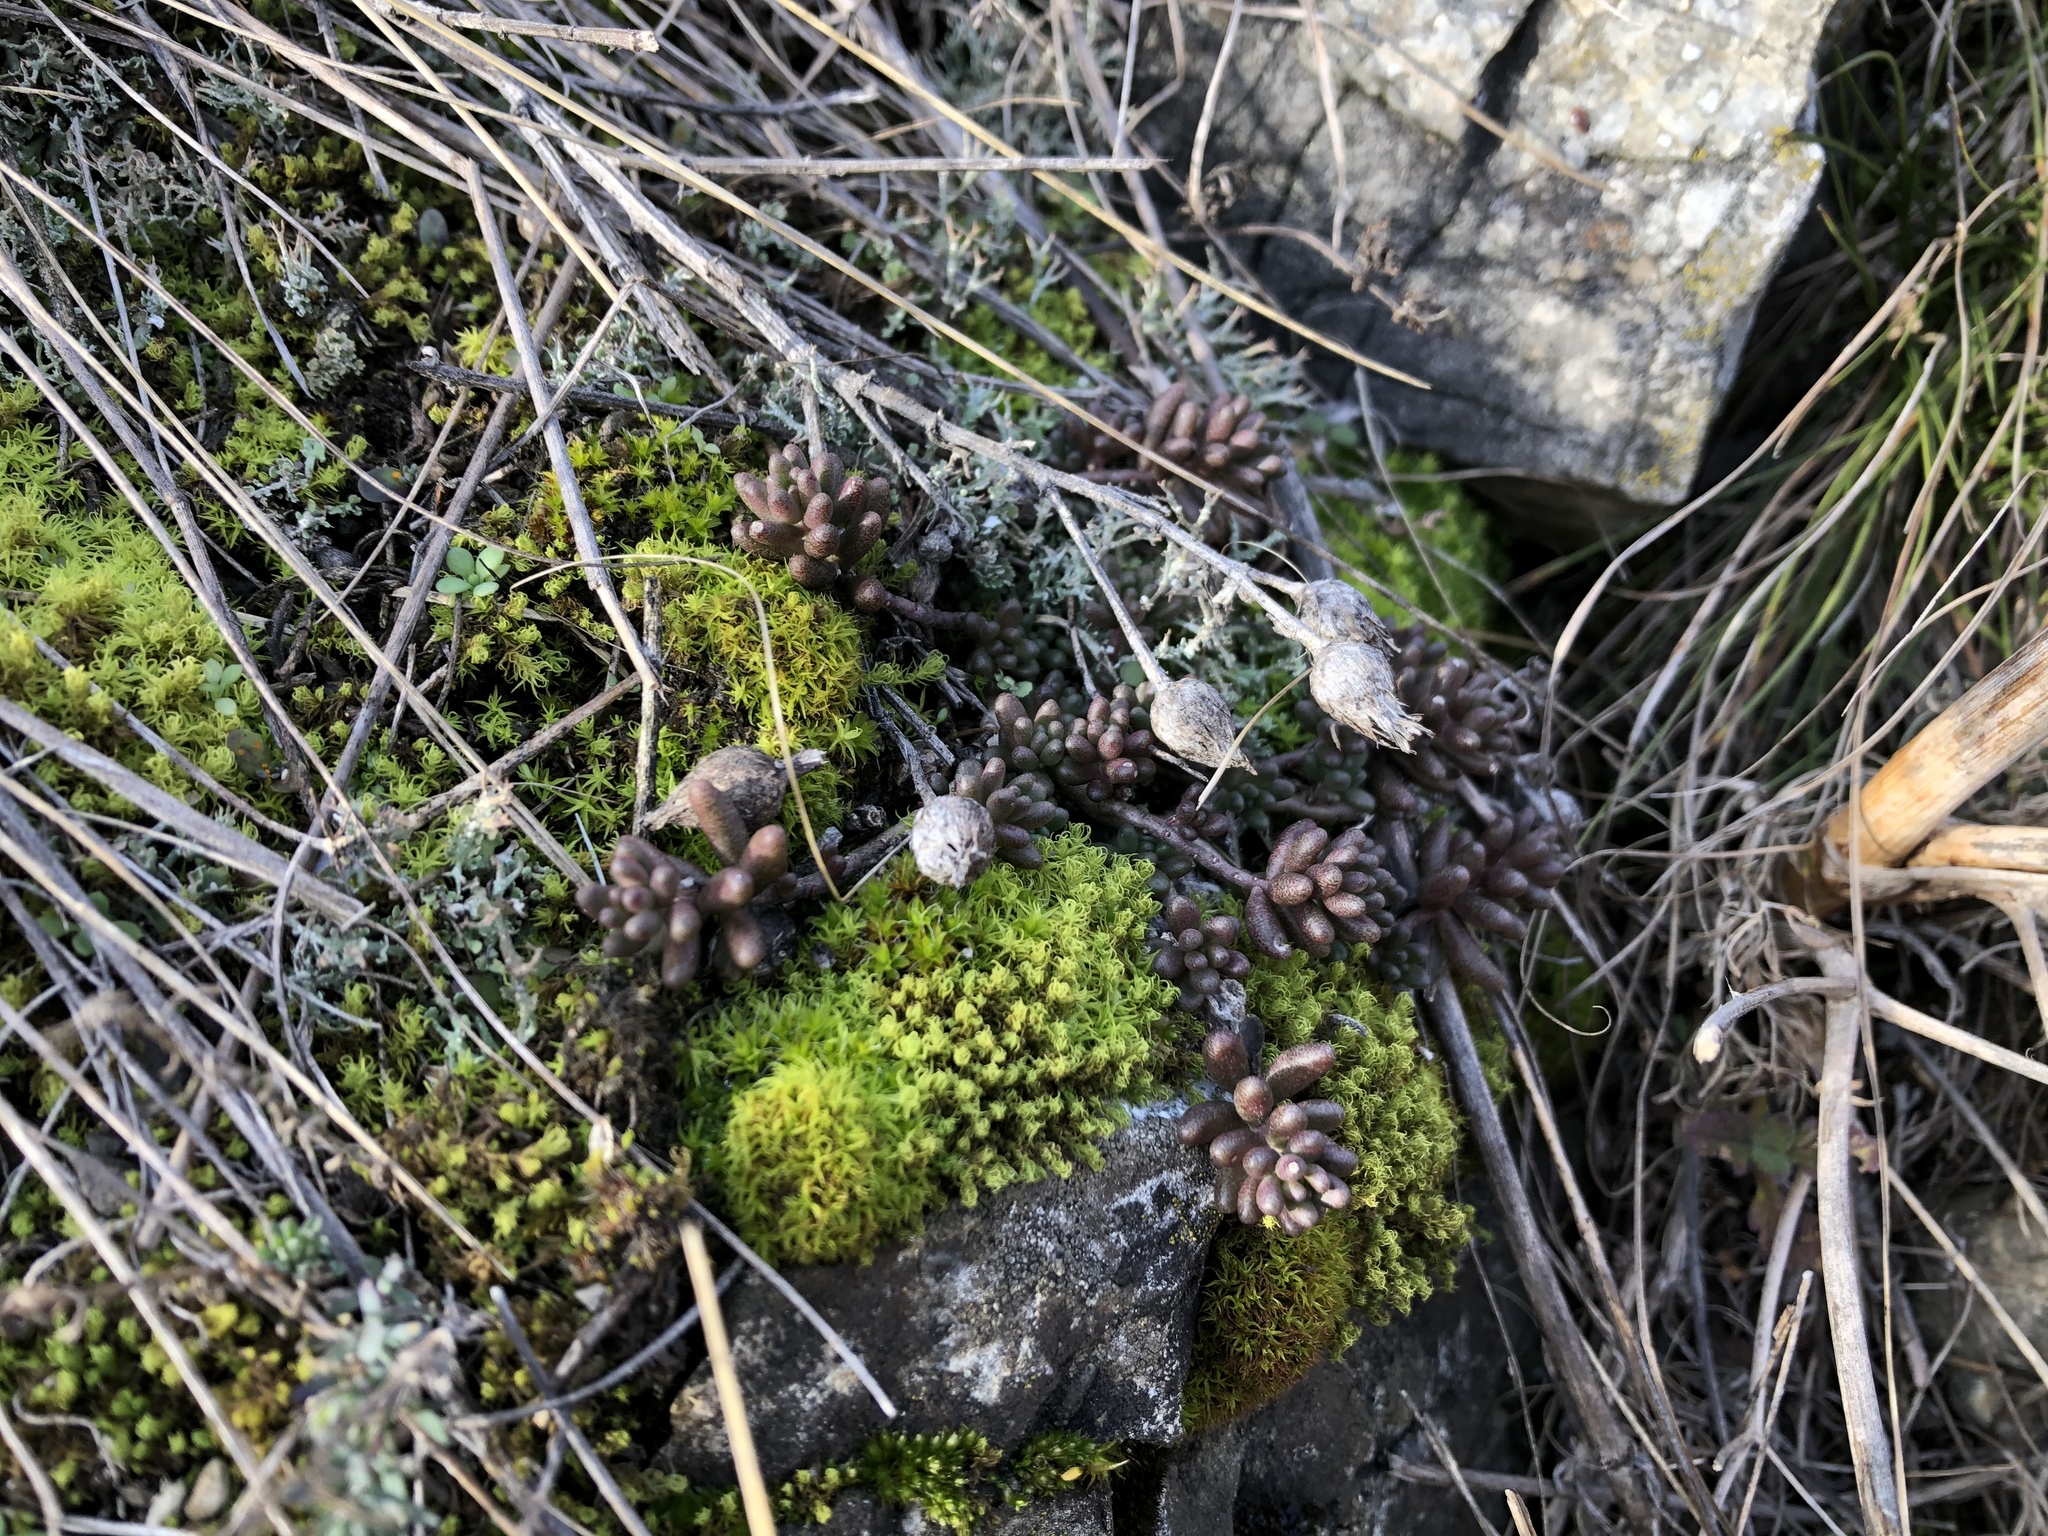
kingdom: Plantae
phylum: Tracheophyta
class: Magnoliopsida
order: Saxifragales
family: Crassulaceae
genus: Sedum
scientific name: Sedum album
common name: White stonecrop
